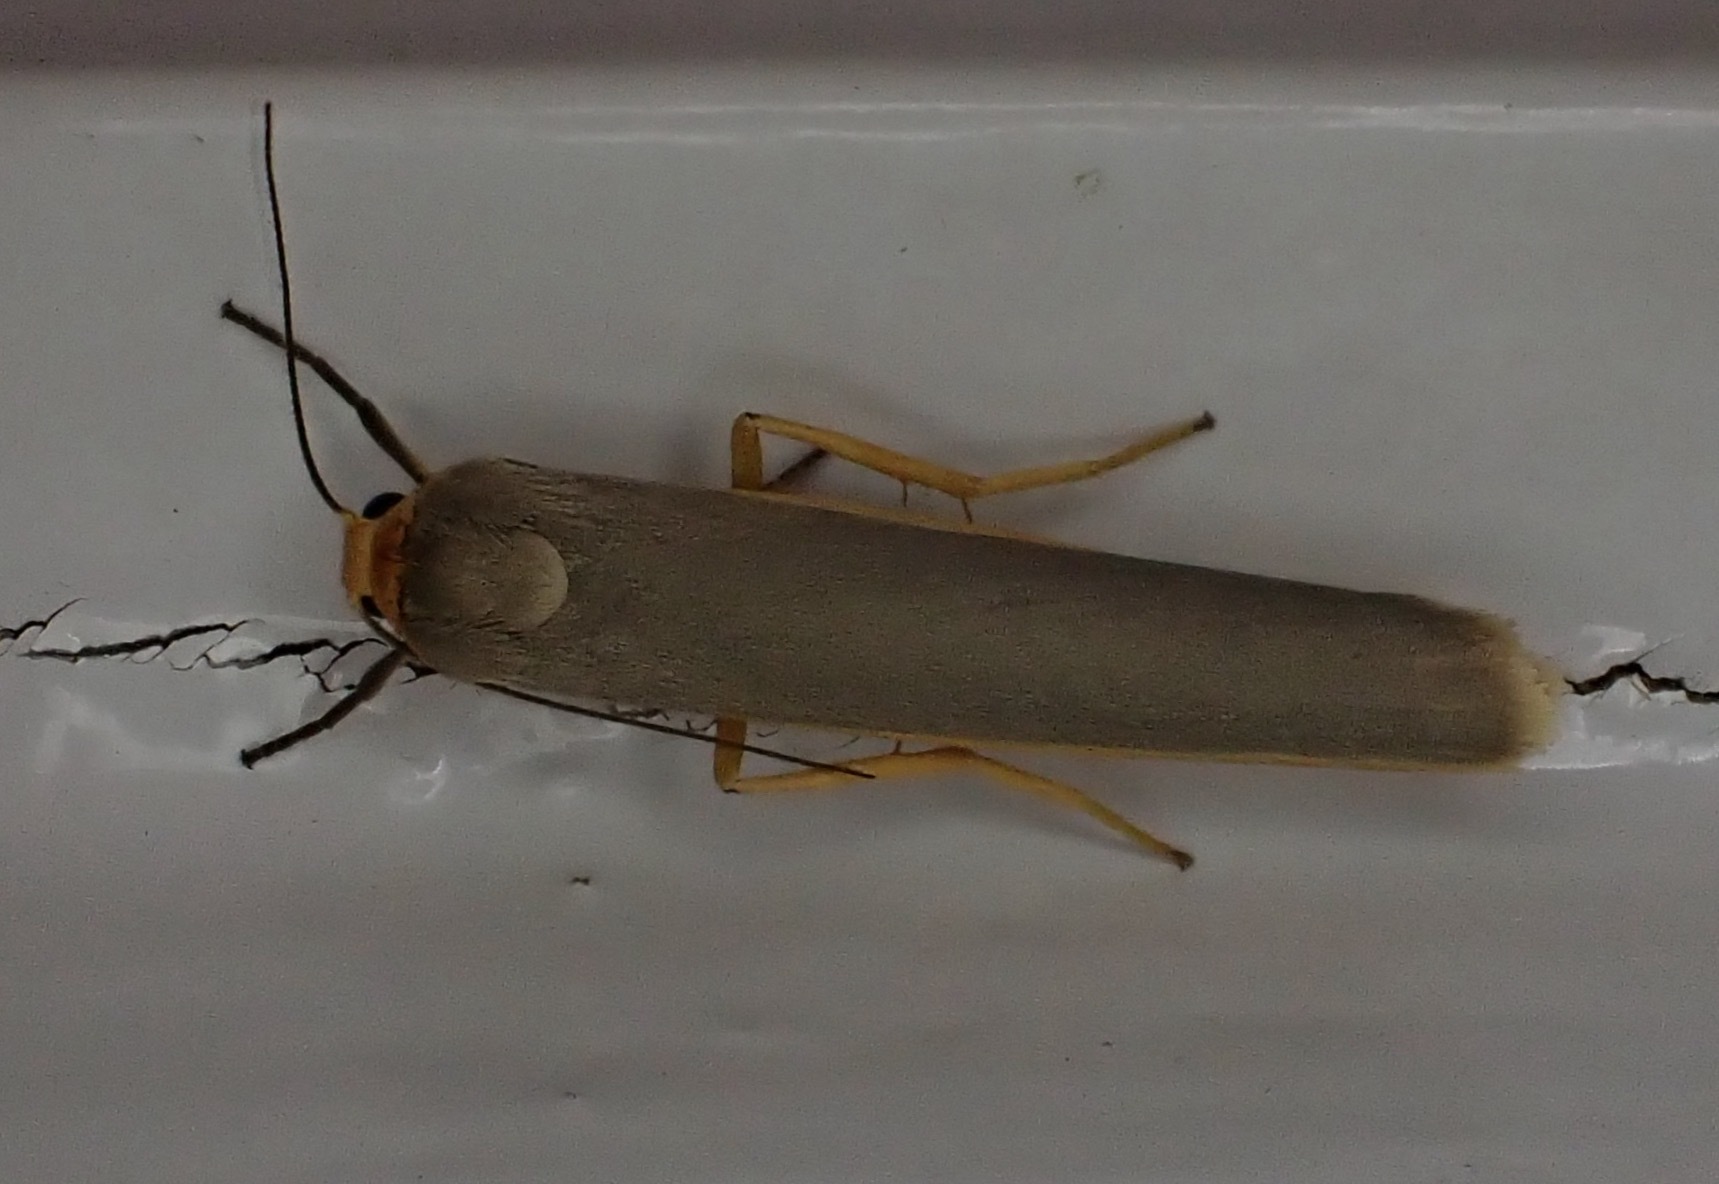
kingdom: Animalia
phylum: Arthropoda
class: Insecta
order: Lepidoptera
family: Erebidae
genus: Manulea
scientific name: Manulea complana
